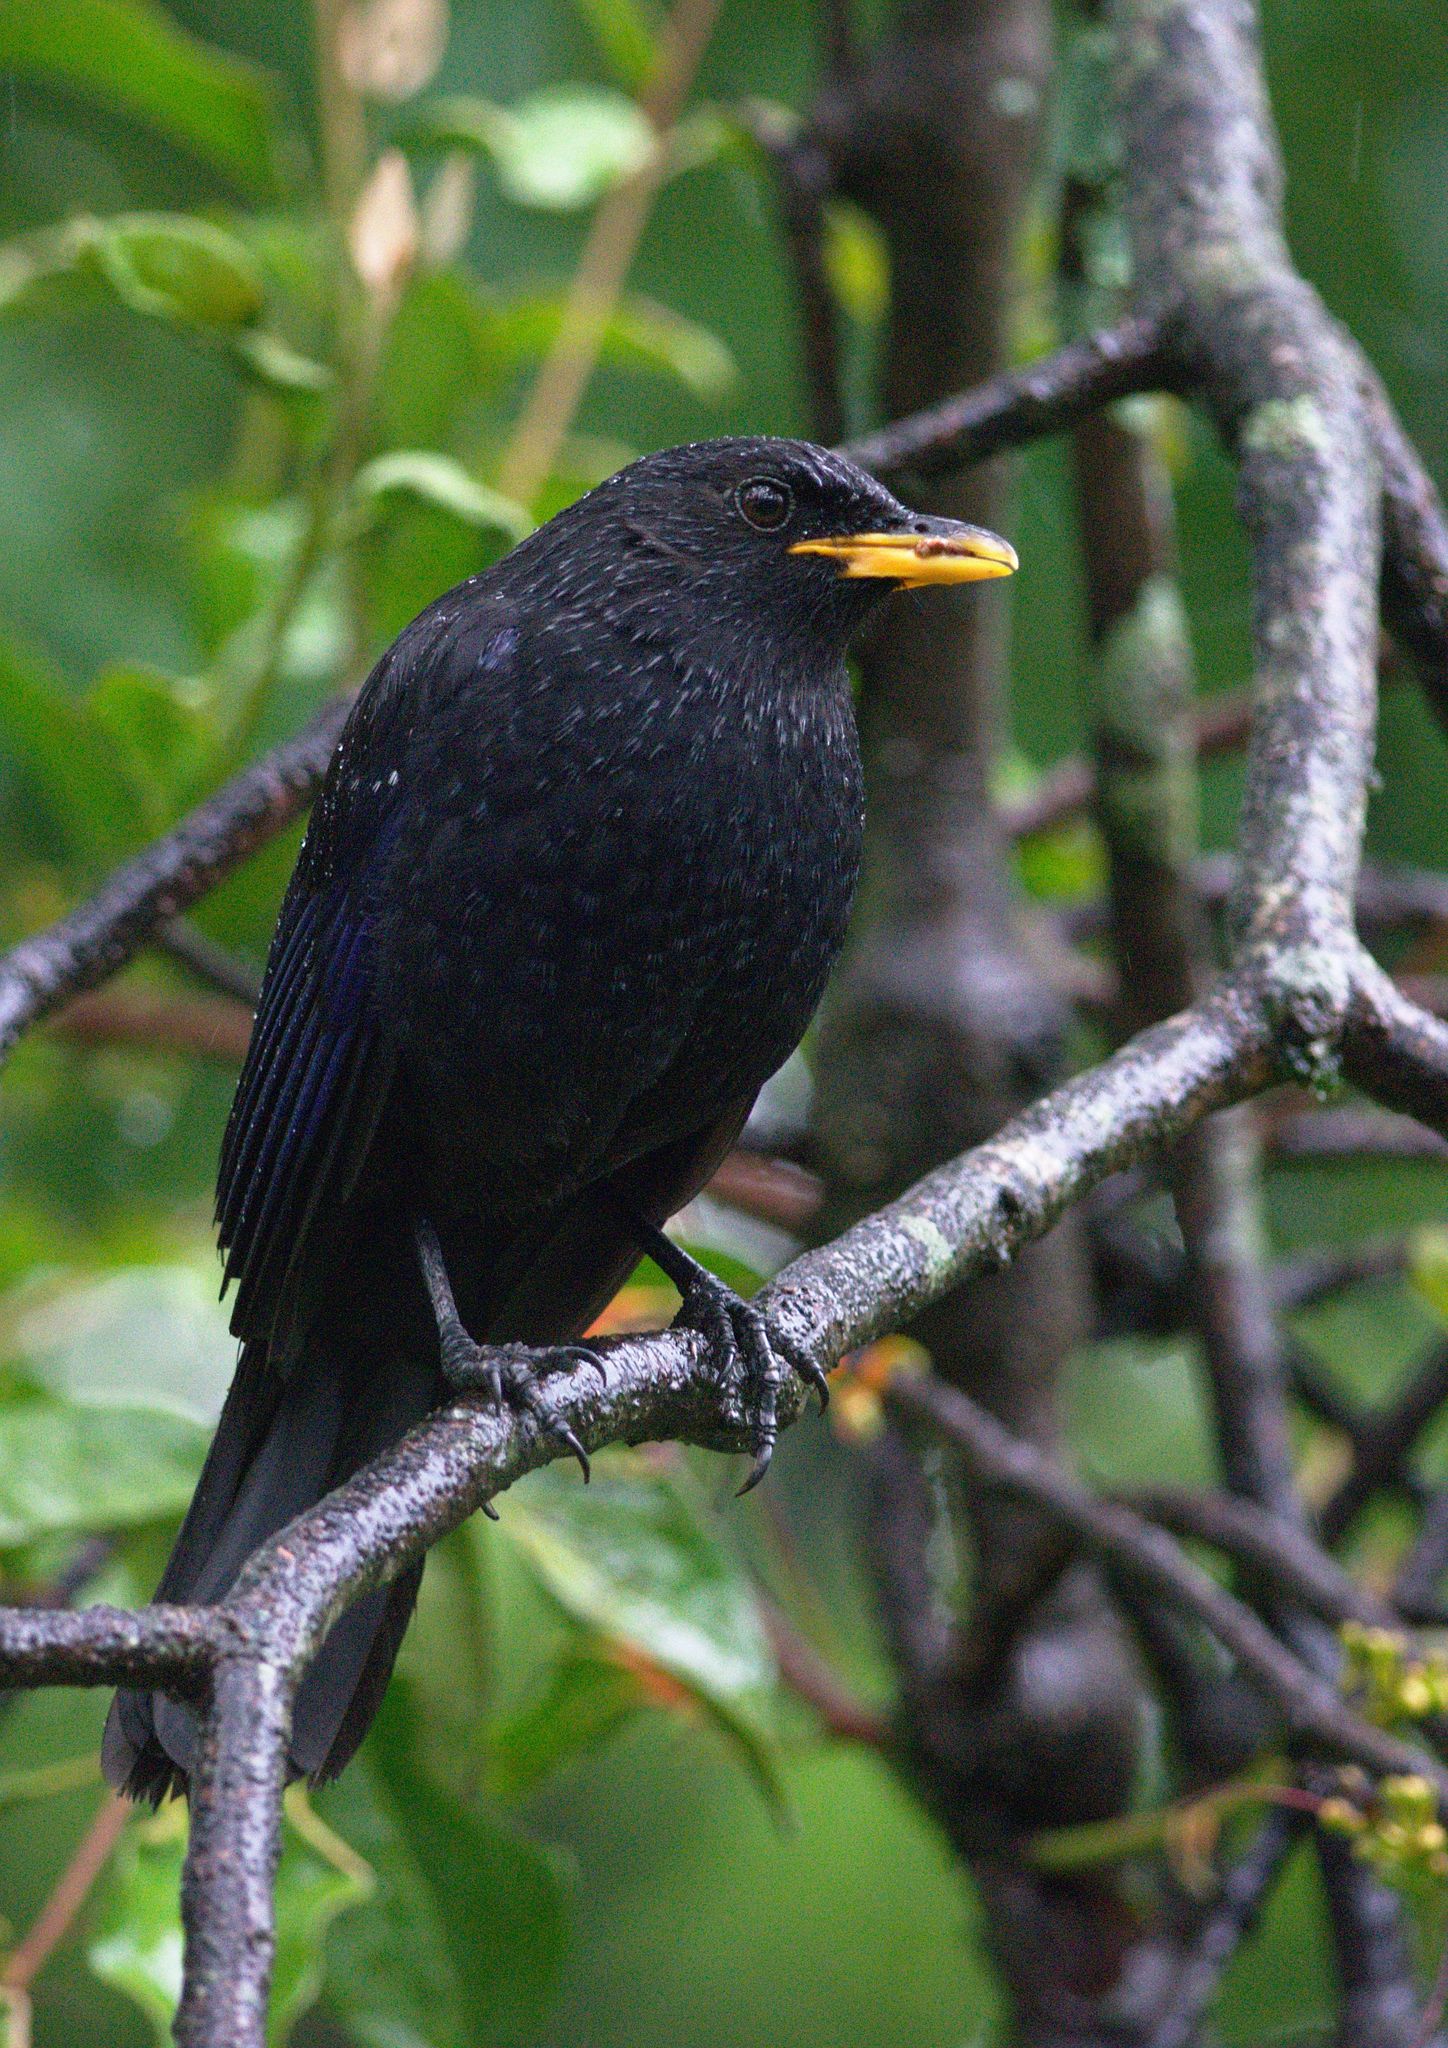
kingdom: Animalia
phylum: Chordata
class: Aves
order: Passeriformes
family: Muscicapidae
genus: Myophonus
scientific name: Myophonus caeruleus
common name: Blue whistling-thrush
